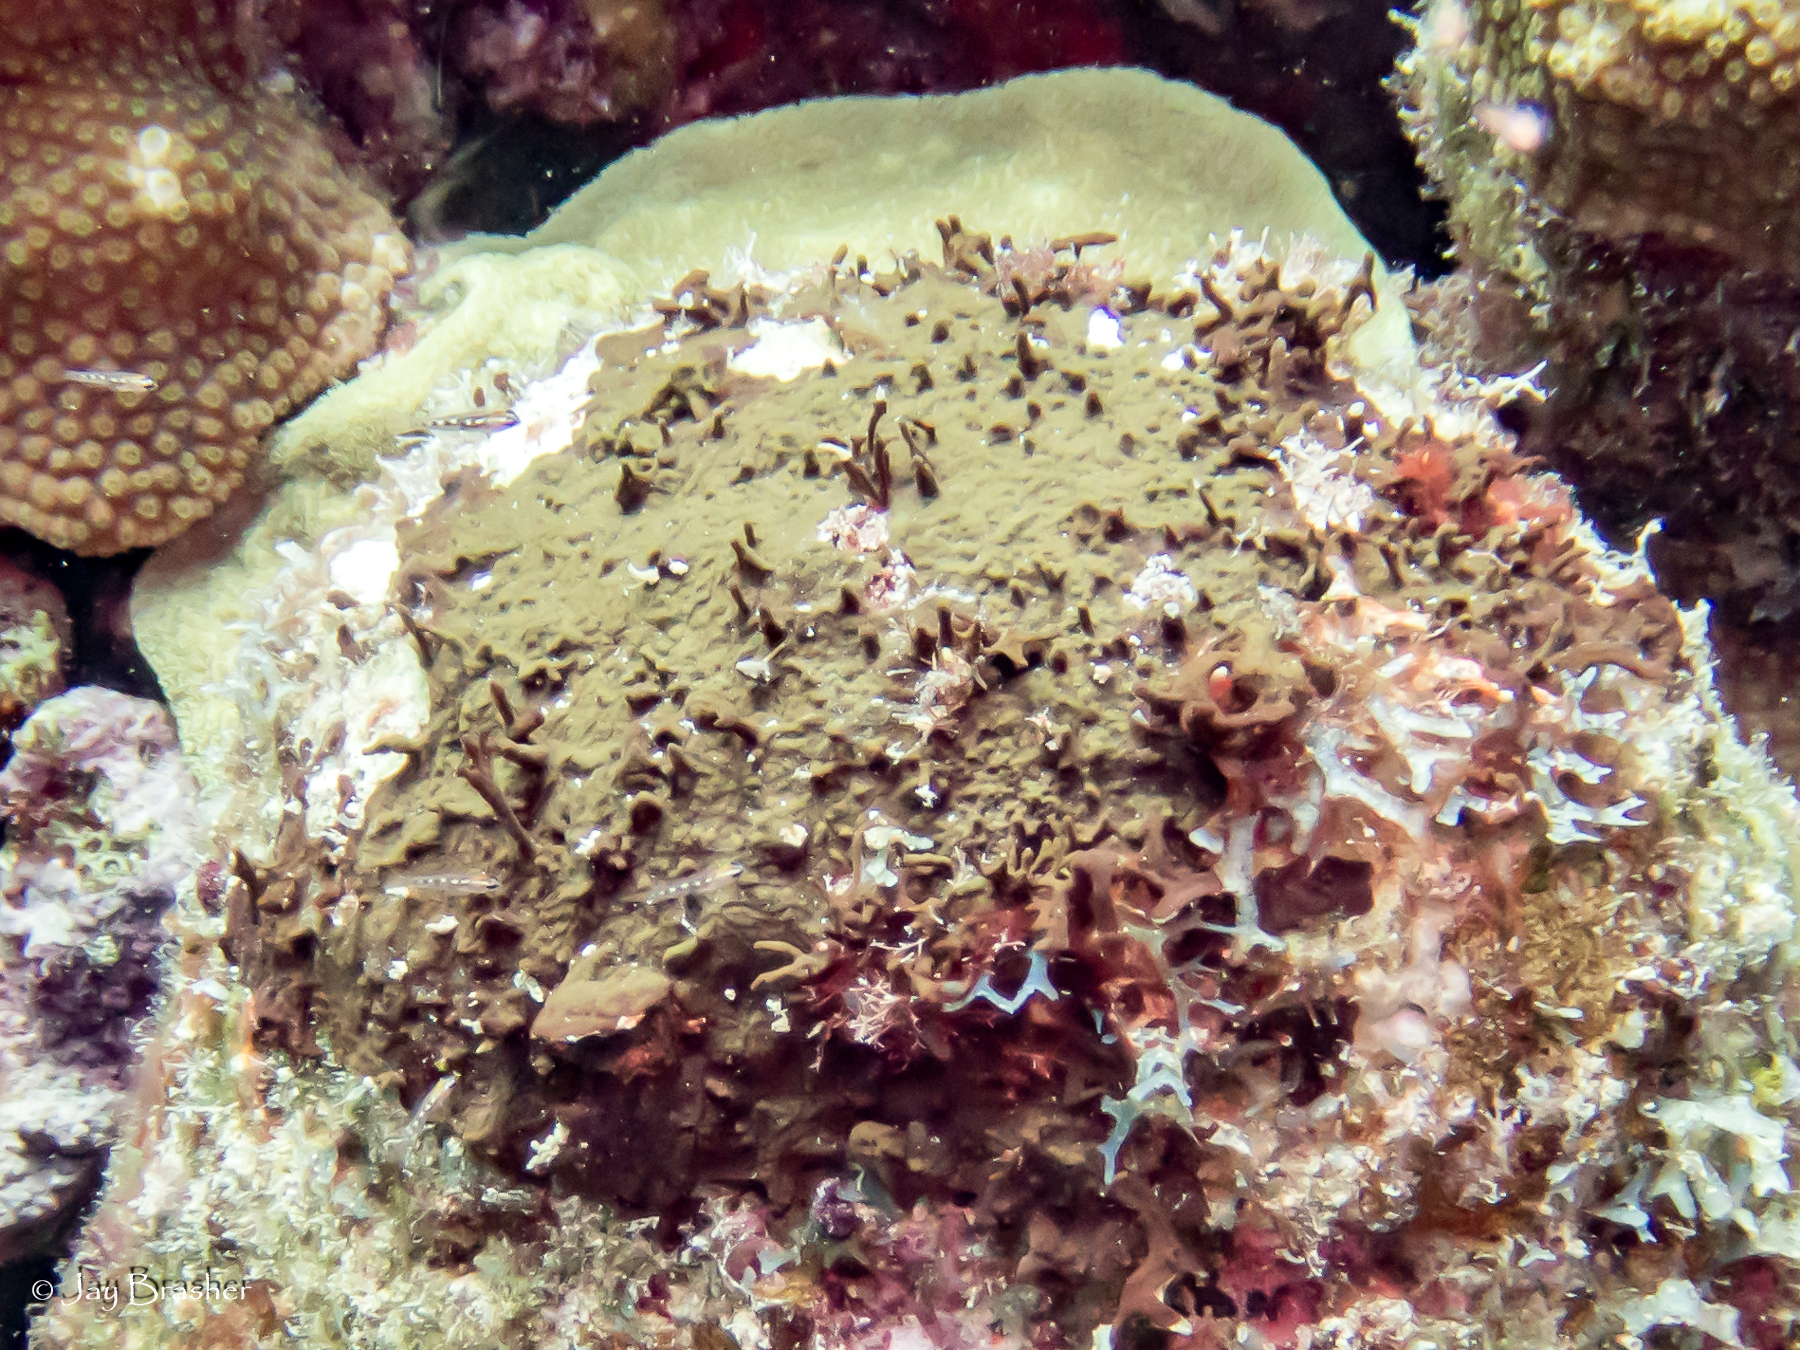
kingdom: Animalia
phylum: Porifera
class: Demospongiae
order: Bubarida
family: Dictyonellidae
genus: Dictyonella
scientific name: Dictyonella funicularis
